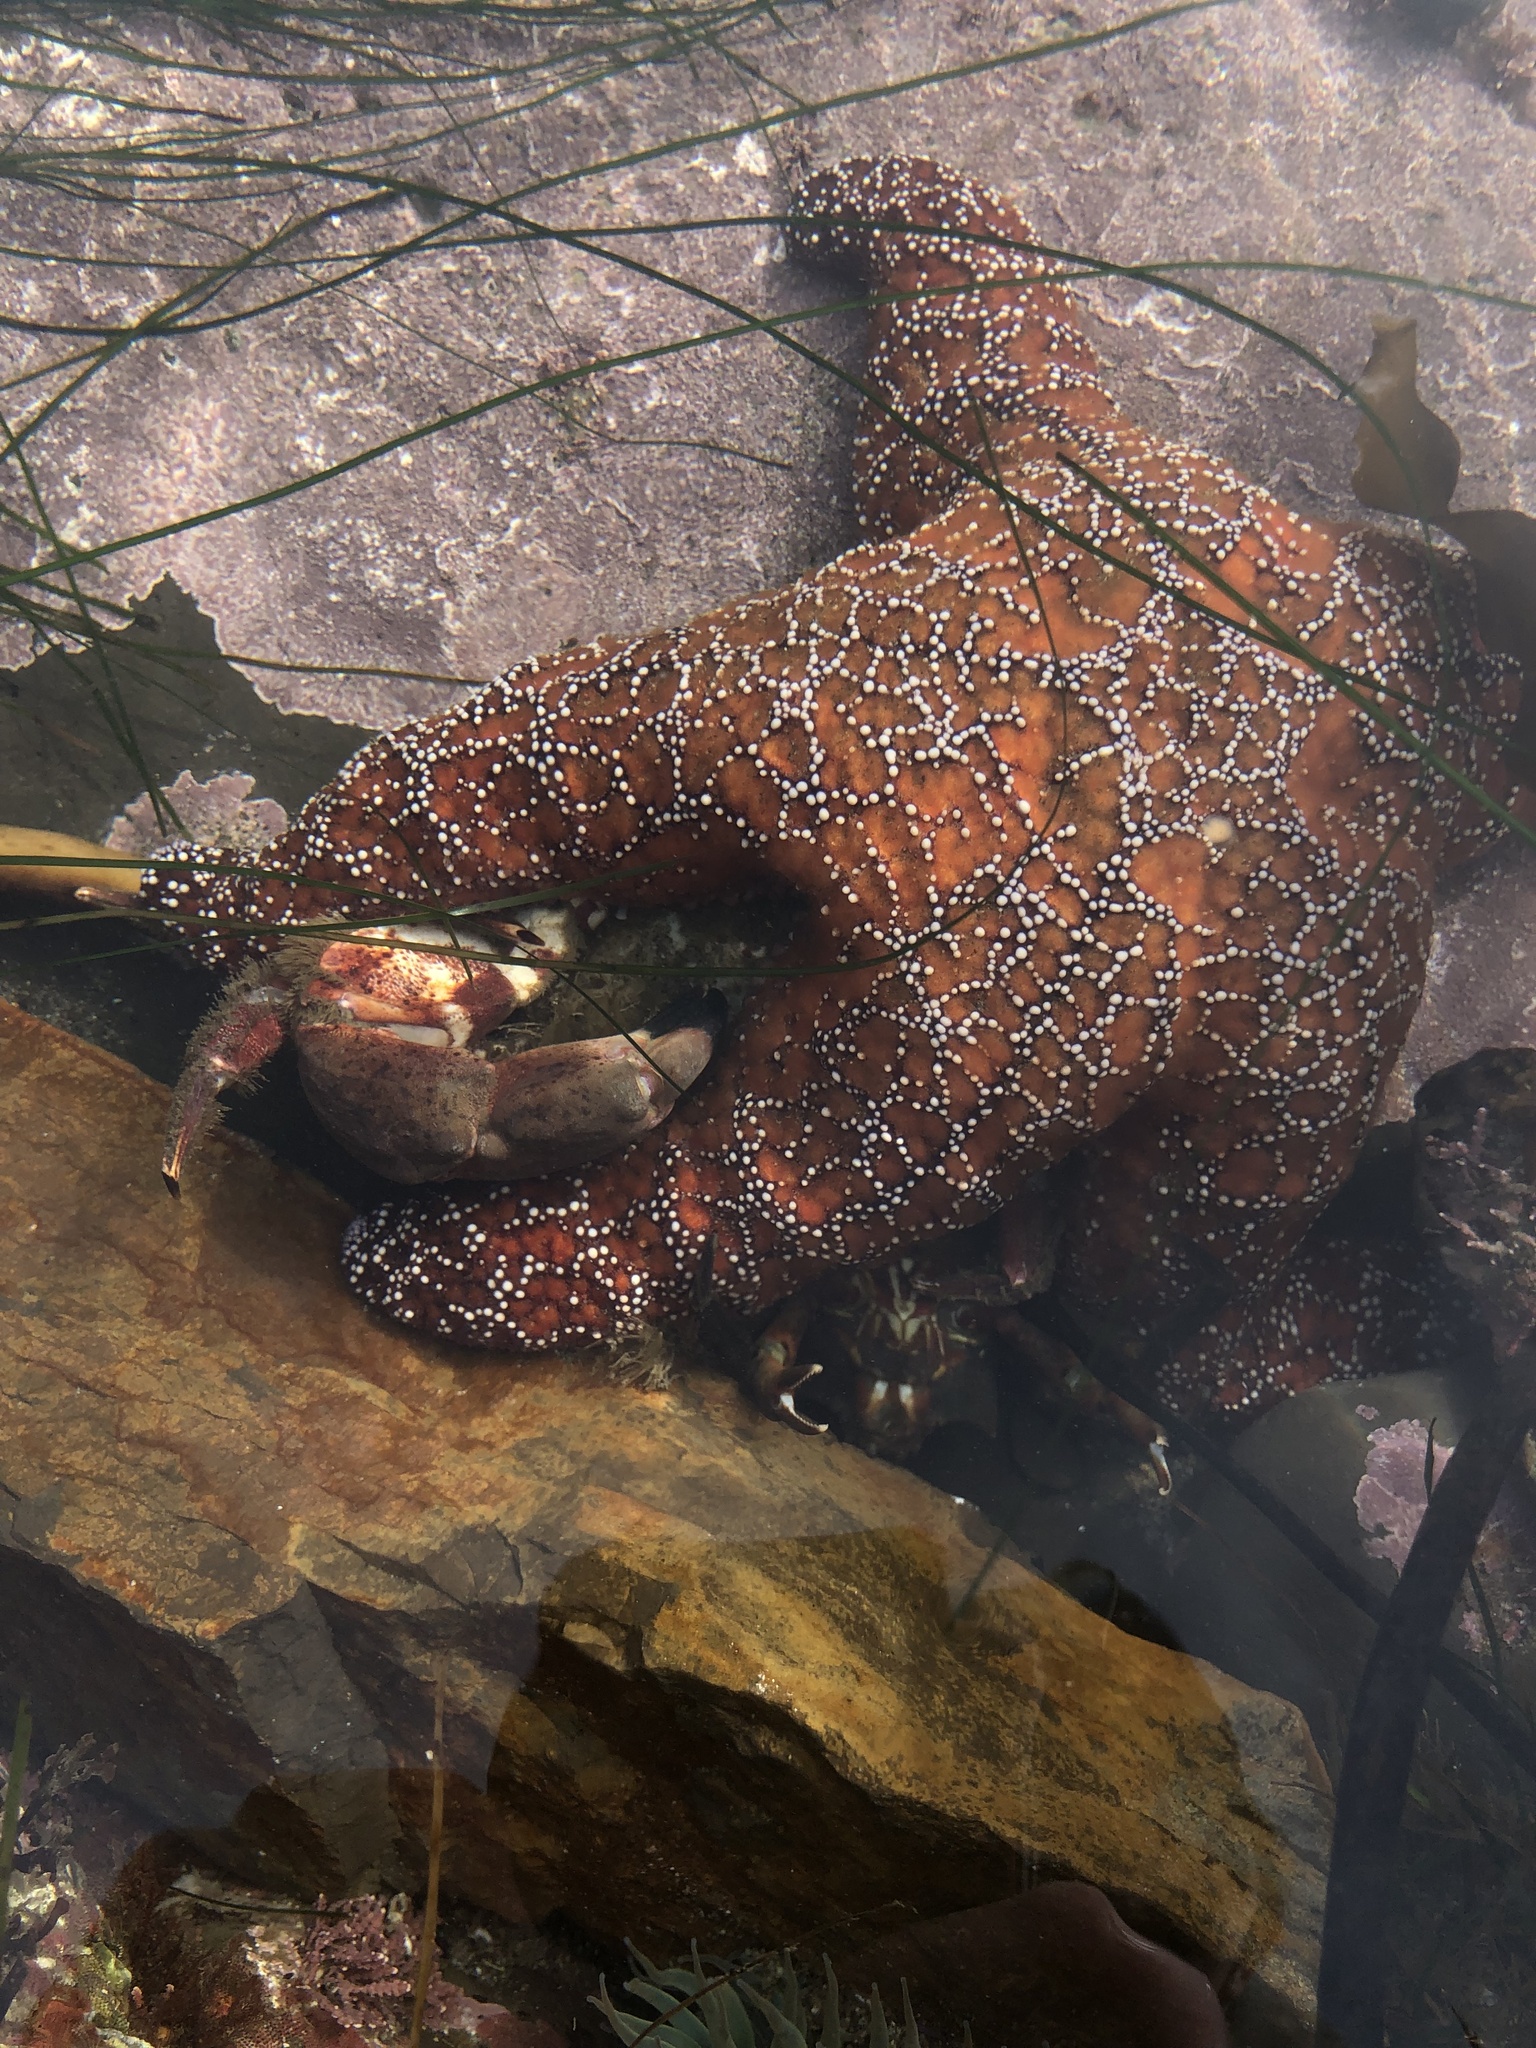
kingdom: Animalia
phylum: Echinodermata
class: Asteroidea
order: Forcipulatida
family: Asteriidae
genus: Pisaster
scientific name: Pisaster ochraceus
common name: Ochre stars
